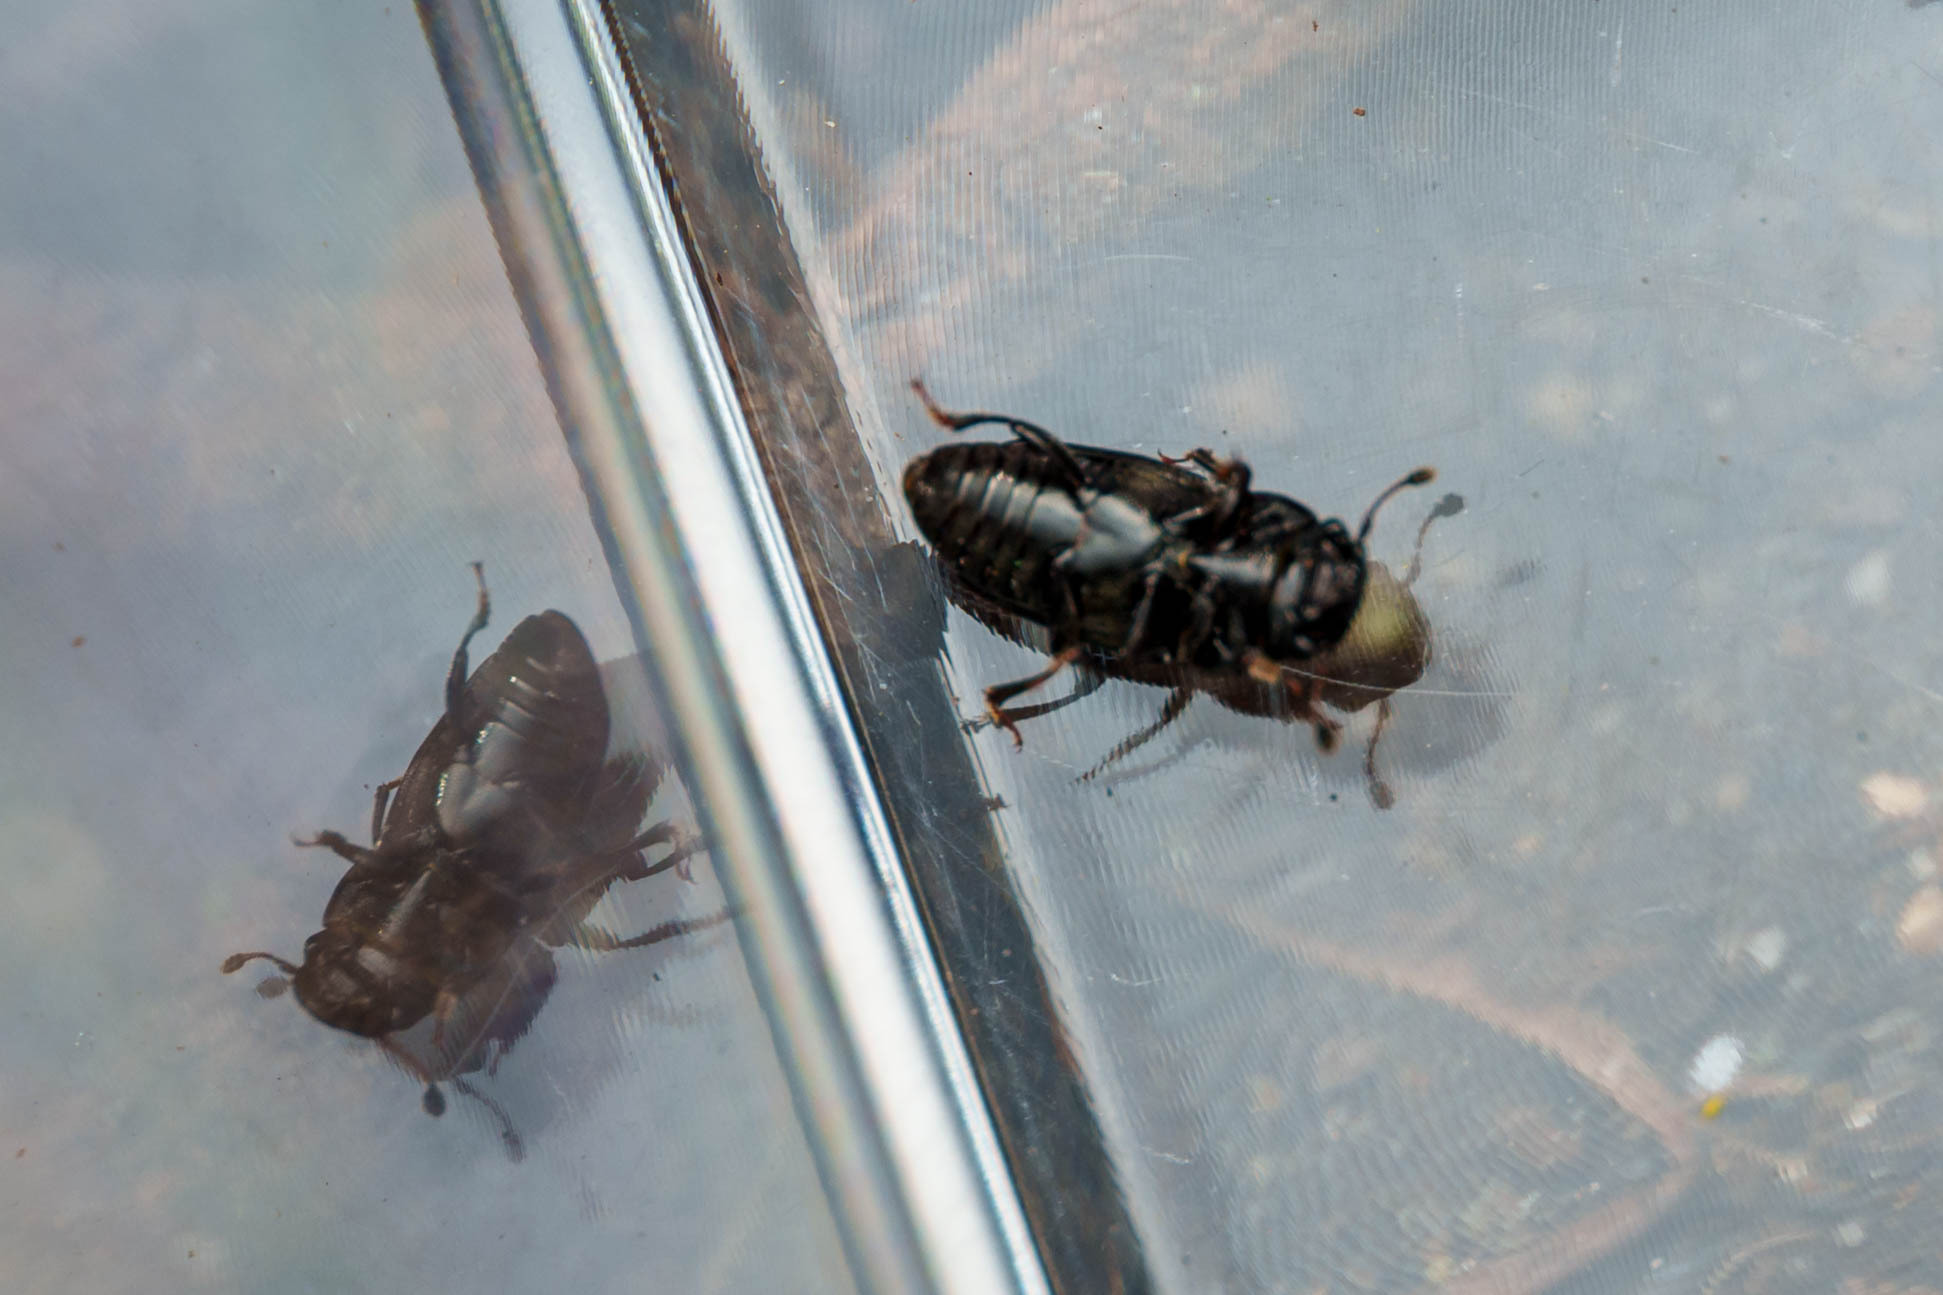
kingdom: Animalia
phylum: Arthropoda
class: Insecta
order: Coleoptera
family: Nitidulidae
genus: Glischrochilus
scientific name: Glischrochilus quadrisignatus
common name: Picnic beetle
